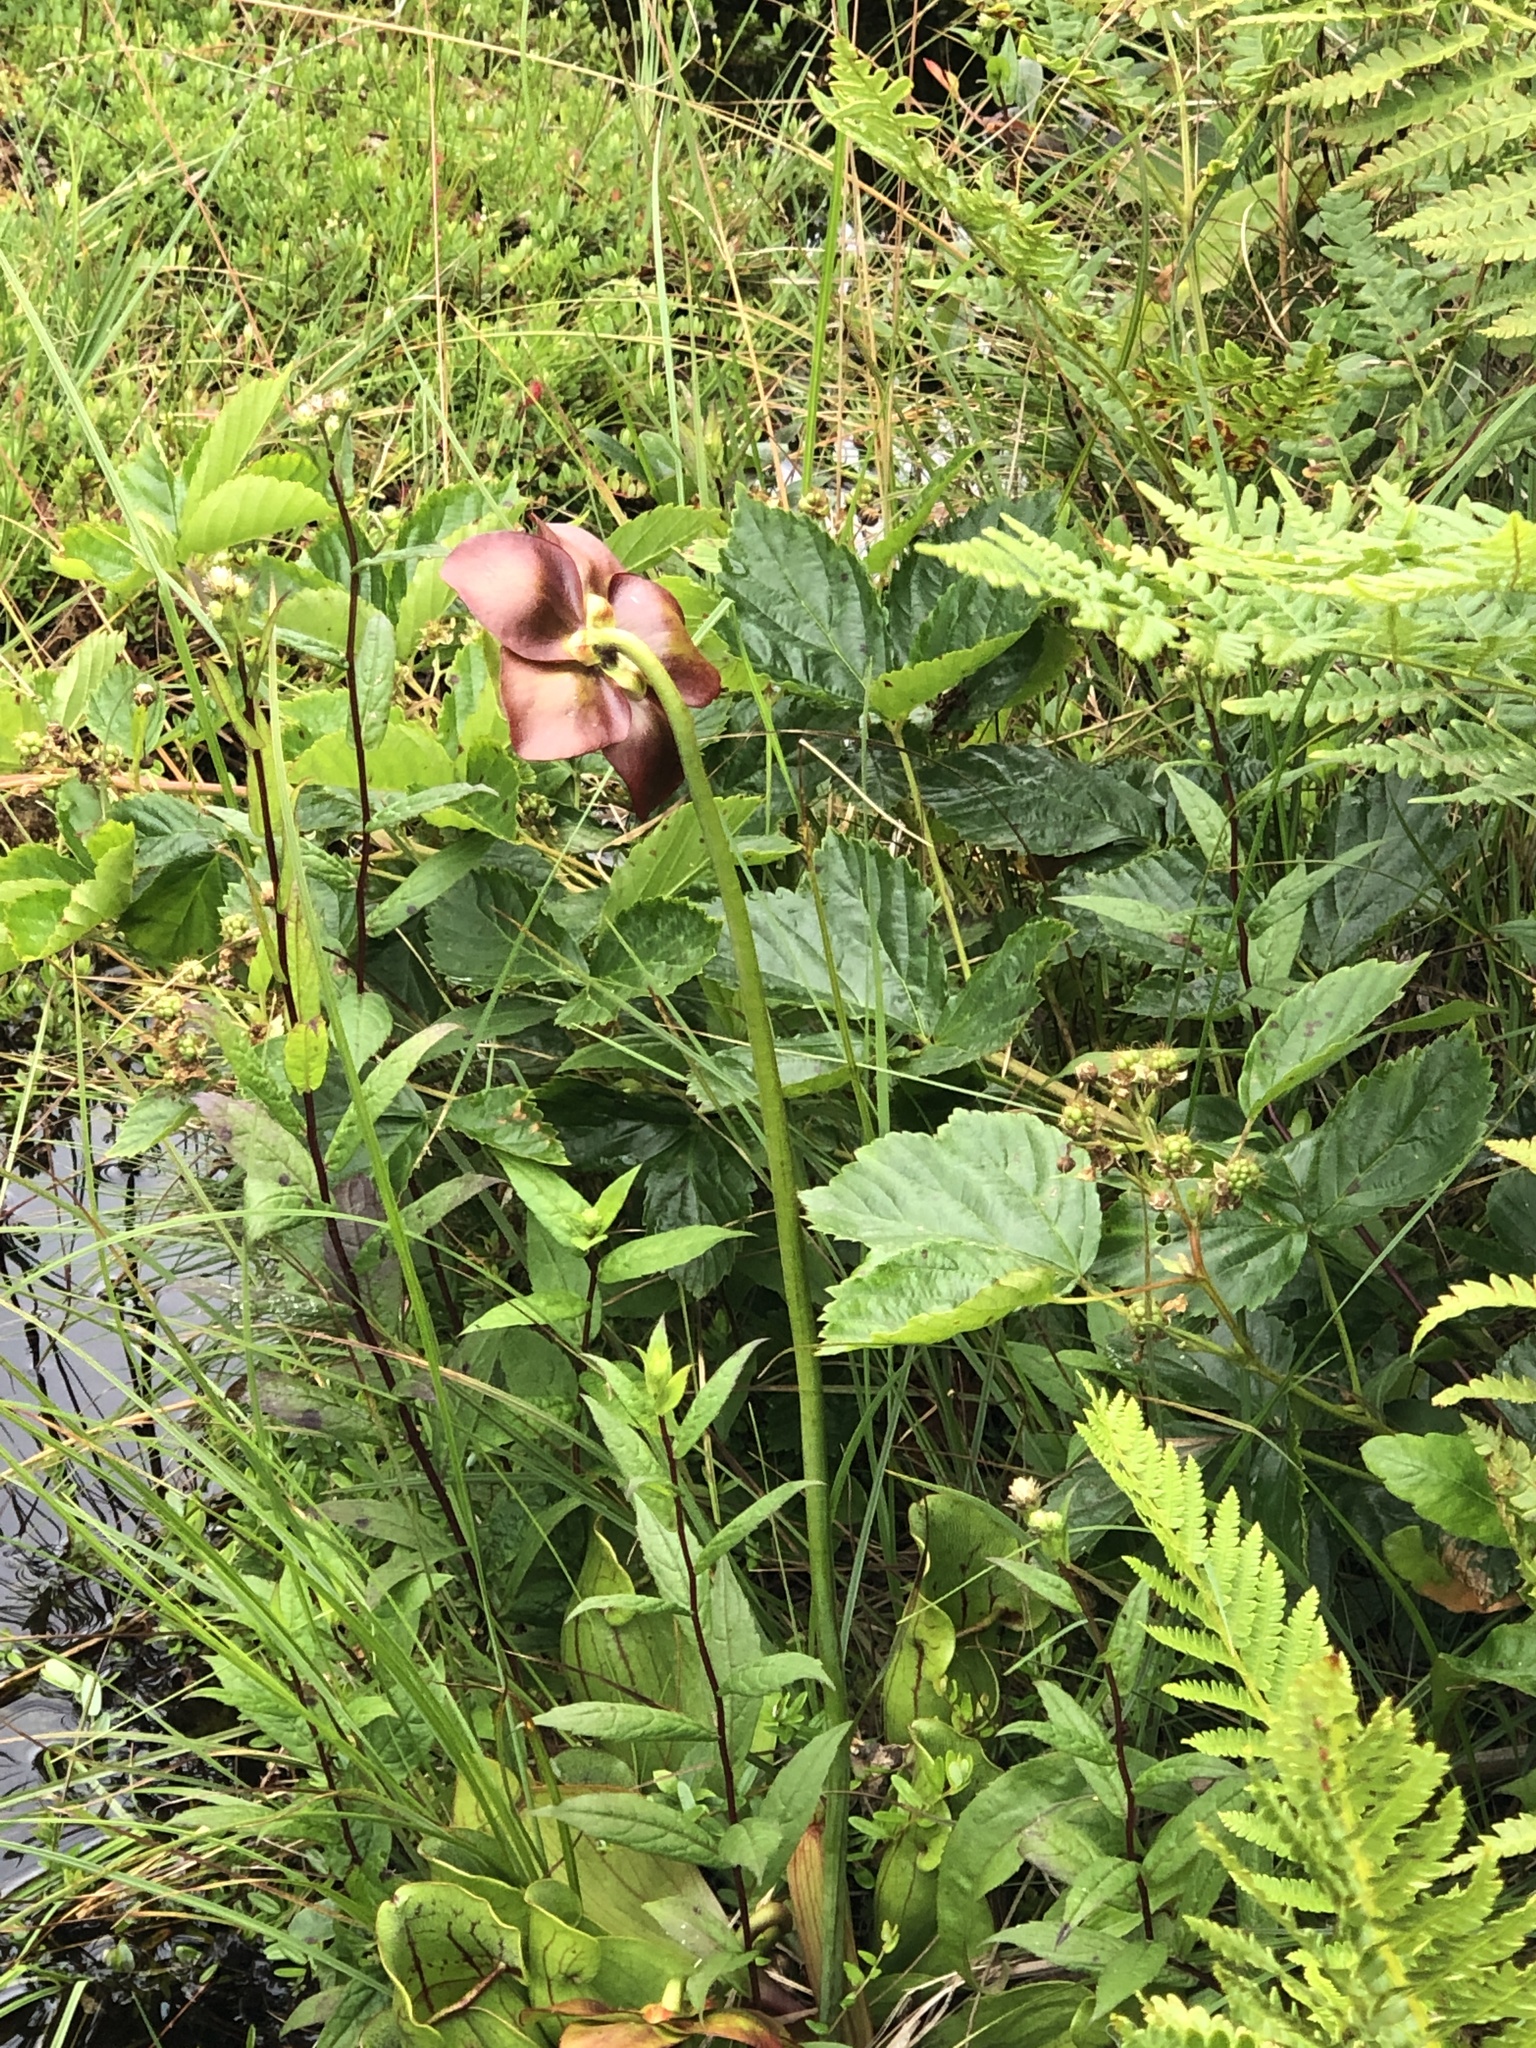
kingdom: Plantae
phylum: Tracheophyta
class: Magnoliopsida
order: Ericales
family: Sarraceniaceae
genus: Sarracenia
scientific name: Sarracenia purpurea
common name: Pitcherplant
